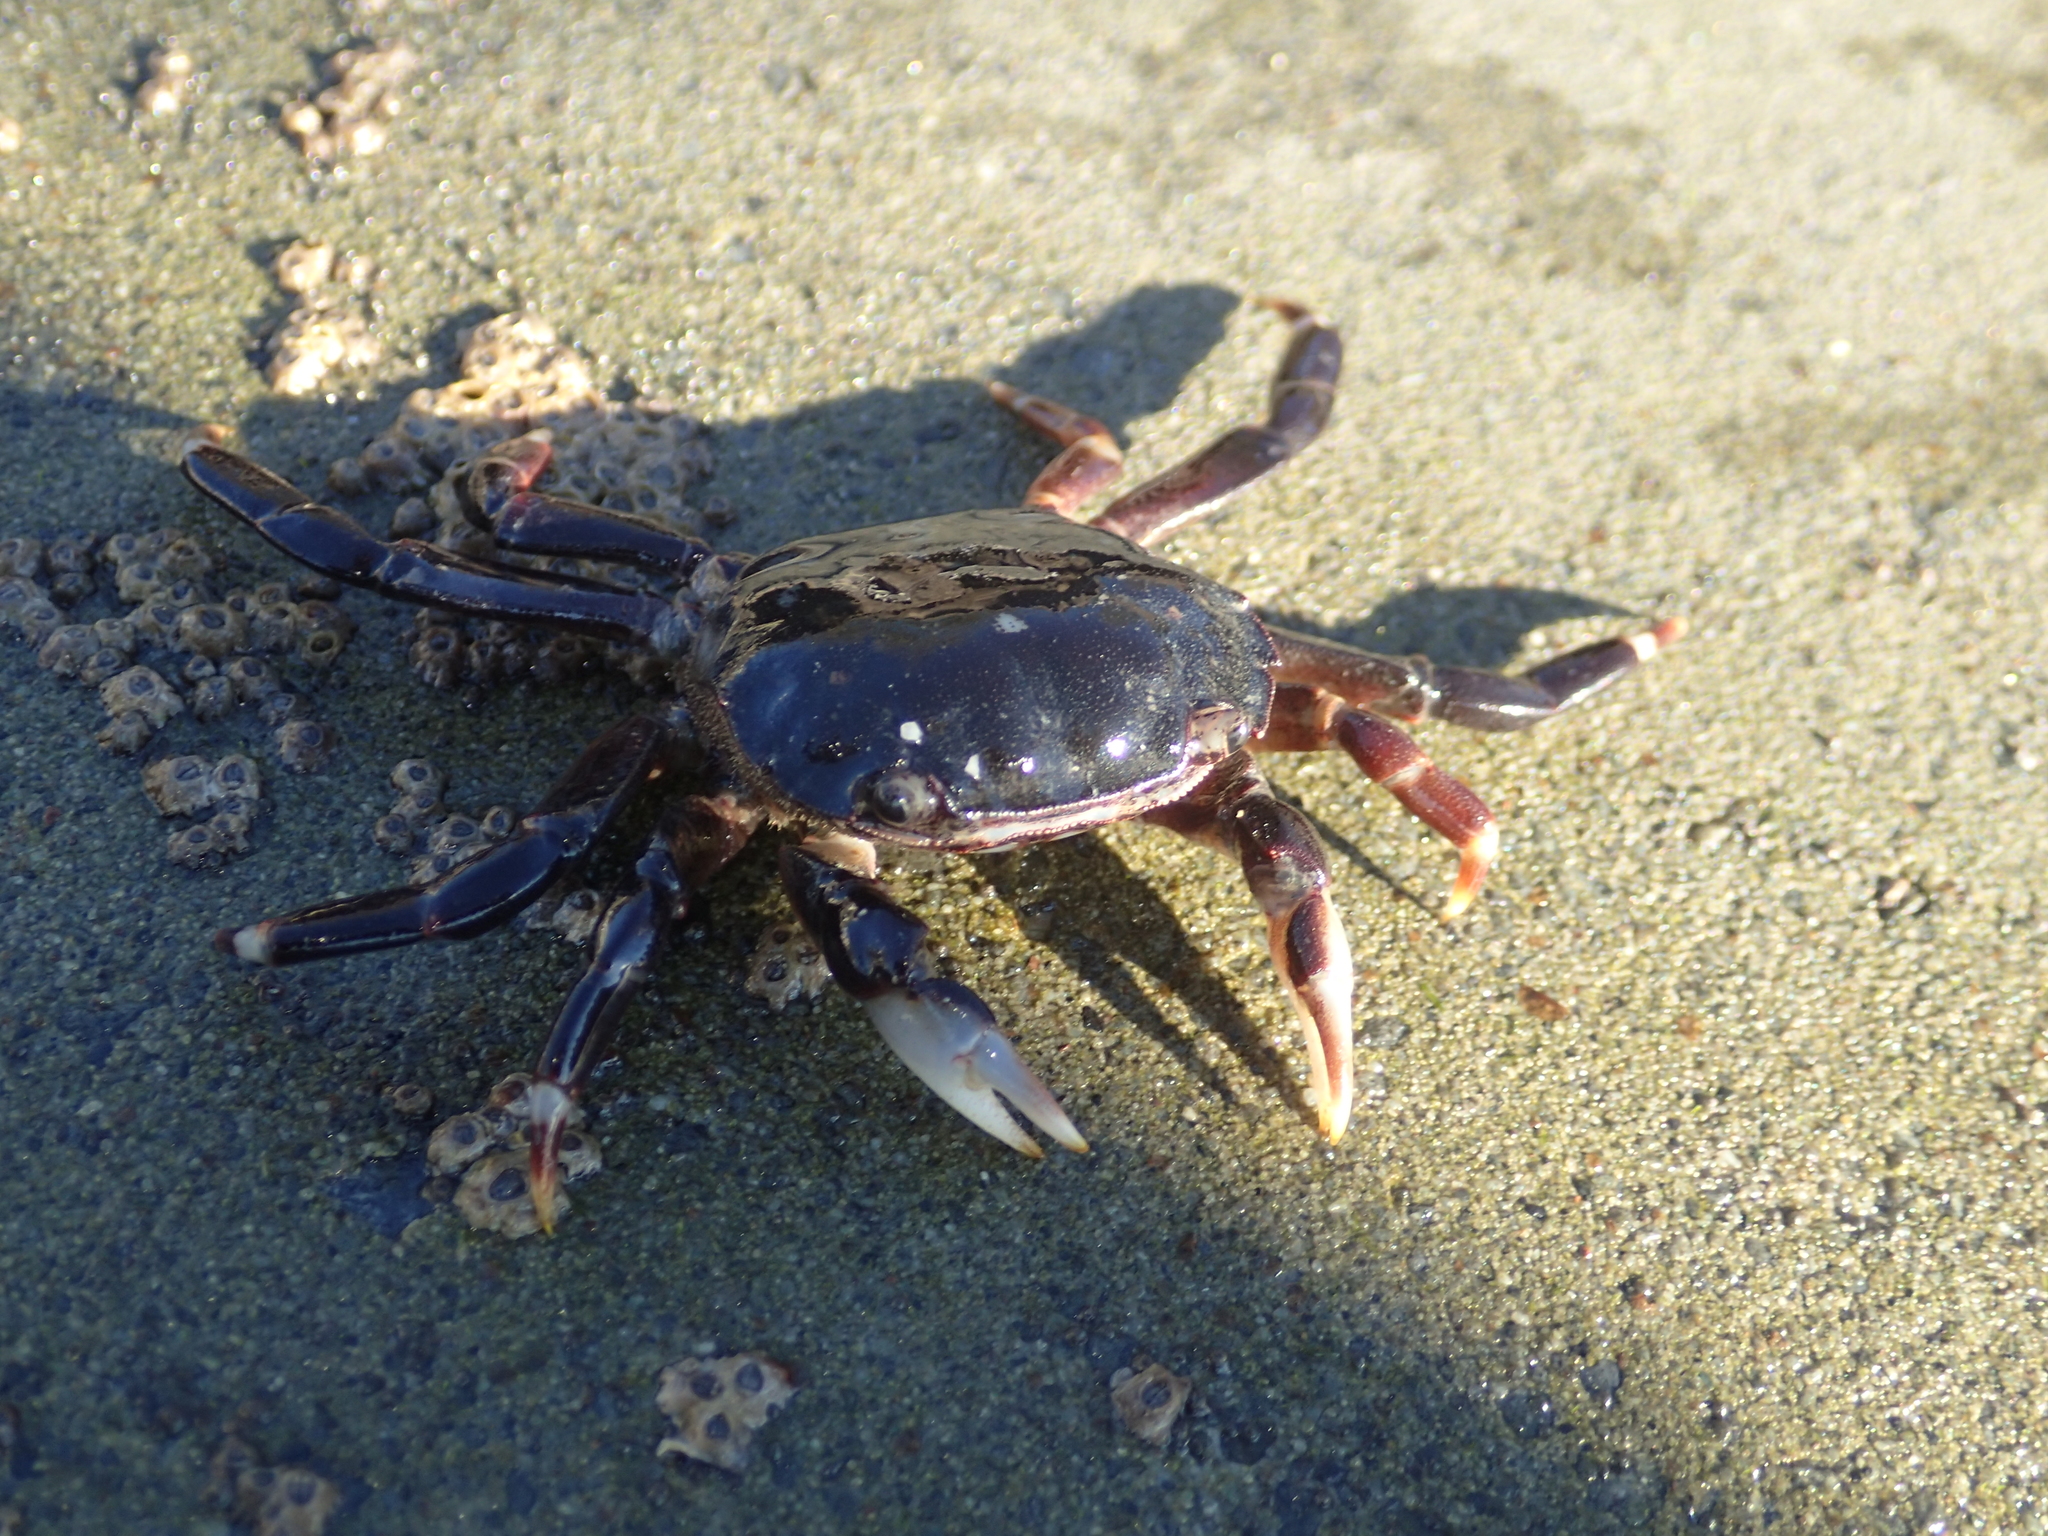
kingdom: Animalia
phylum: Arthropoda
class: Malacostraca
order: Decapoda
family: Varunidae
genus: Hemigrapsus
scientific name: Hemigrapsus sexdentatus
